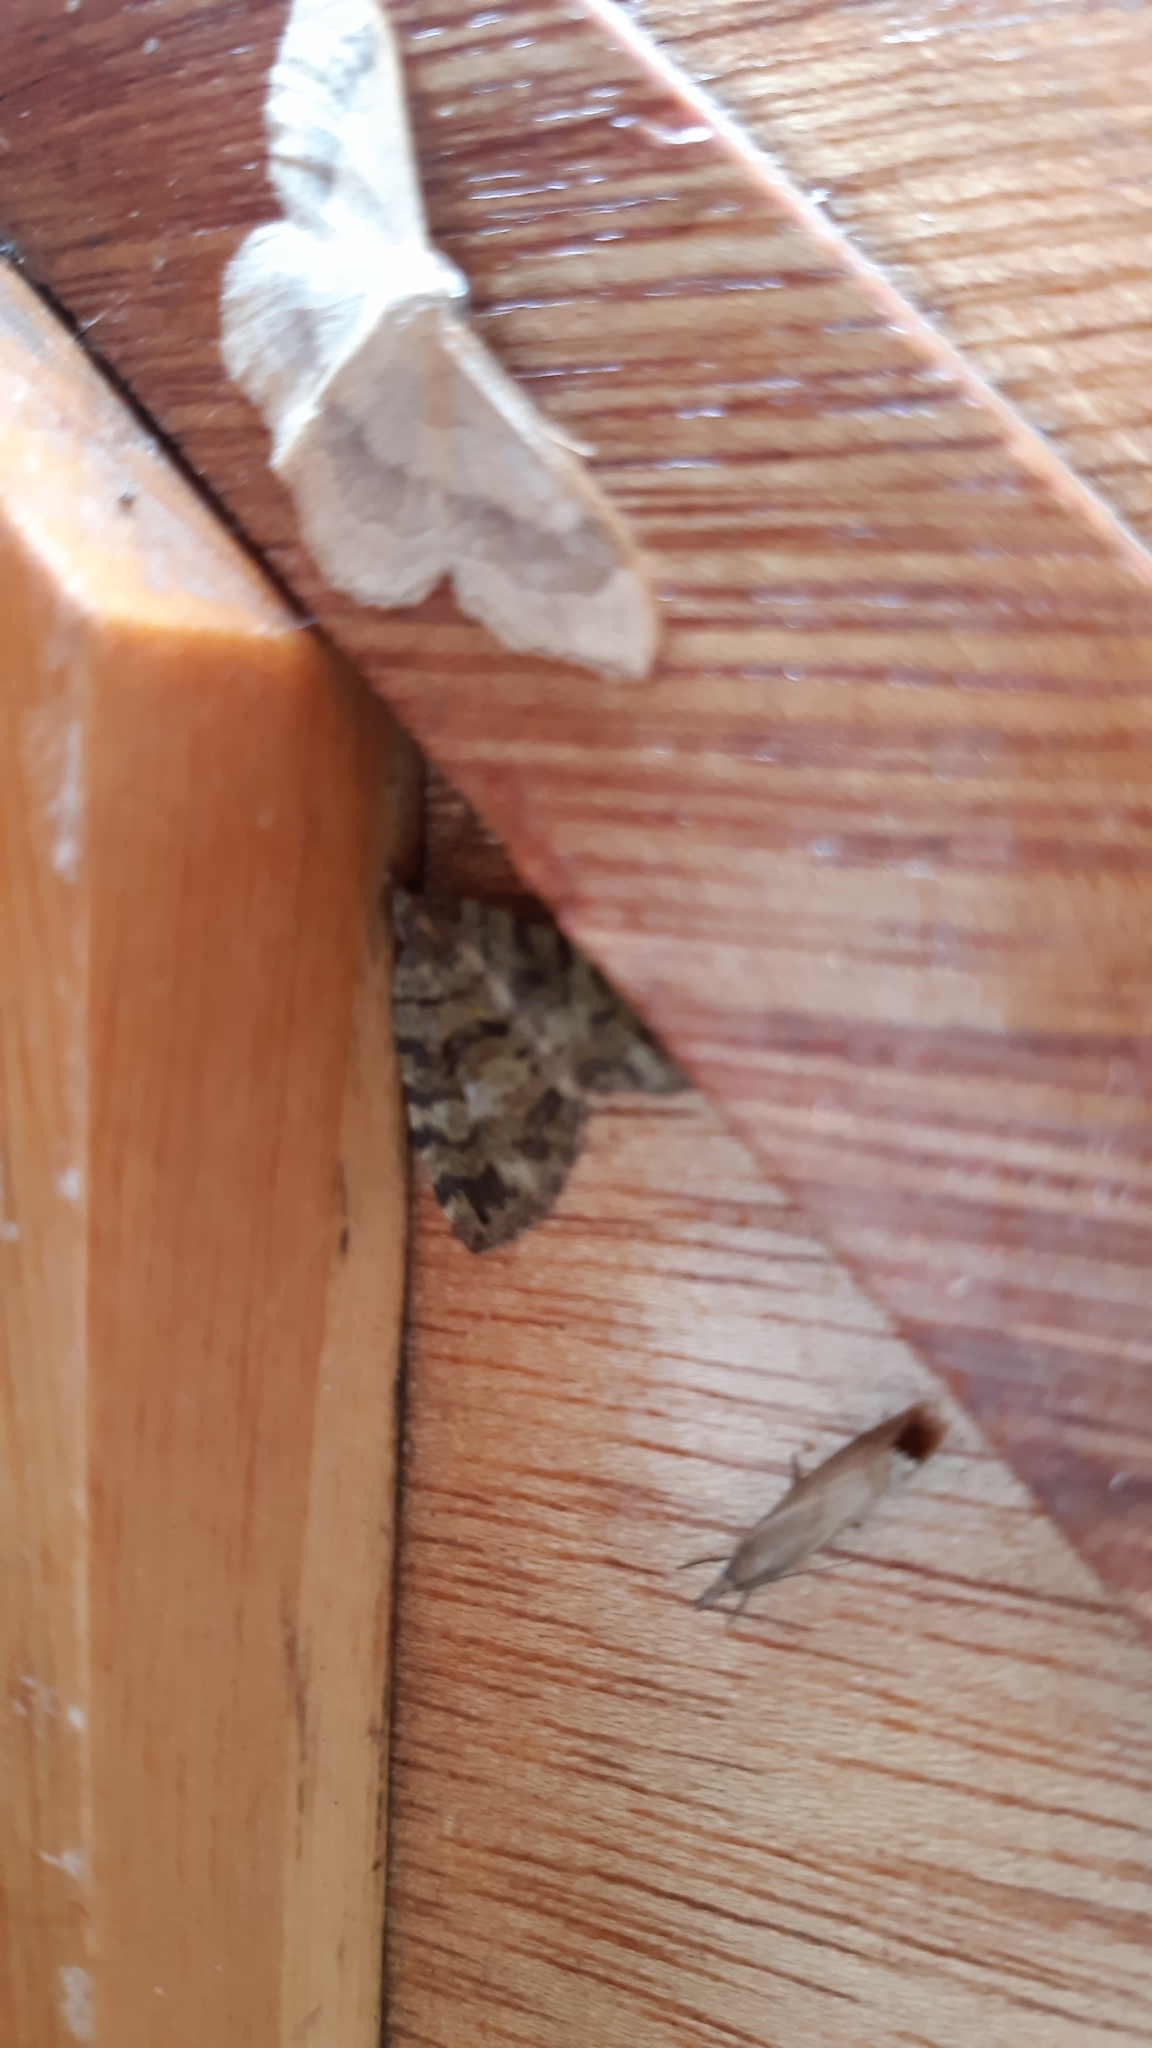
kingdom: Animalia
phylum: Arthropoda
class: Insecta
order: Lepidoptera
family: Geometridae
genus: Hydriomena
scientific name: Hydriomena furcata
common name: July highflyer
